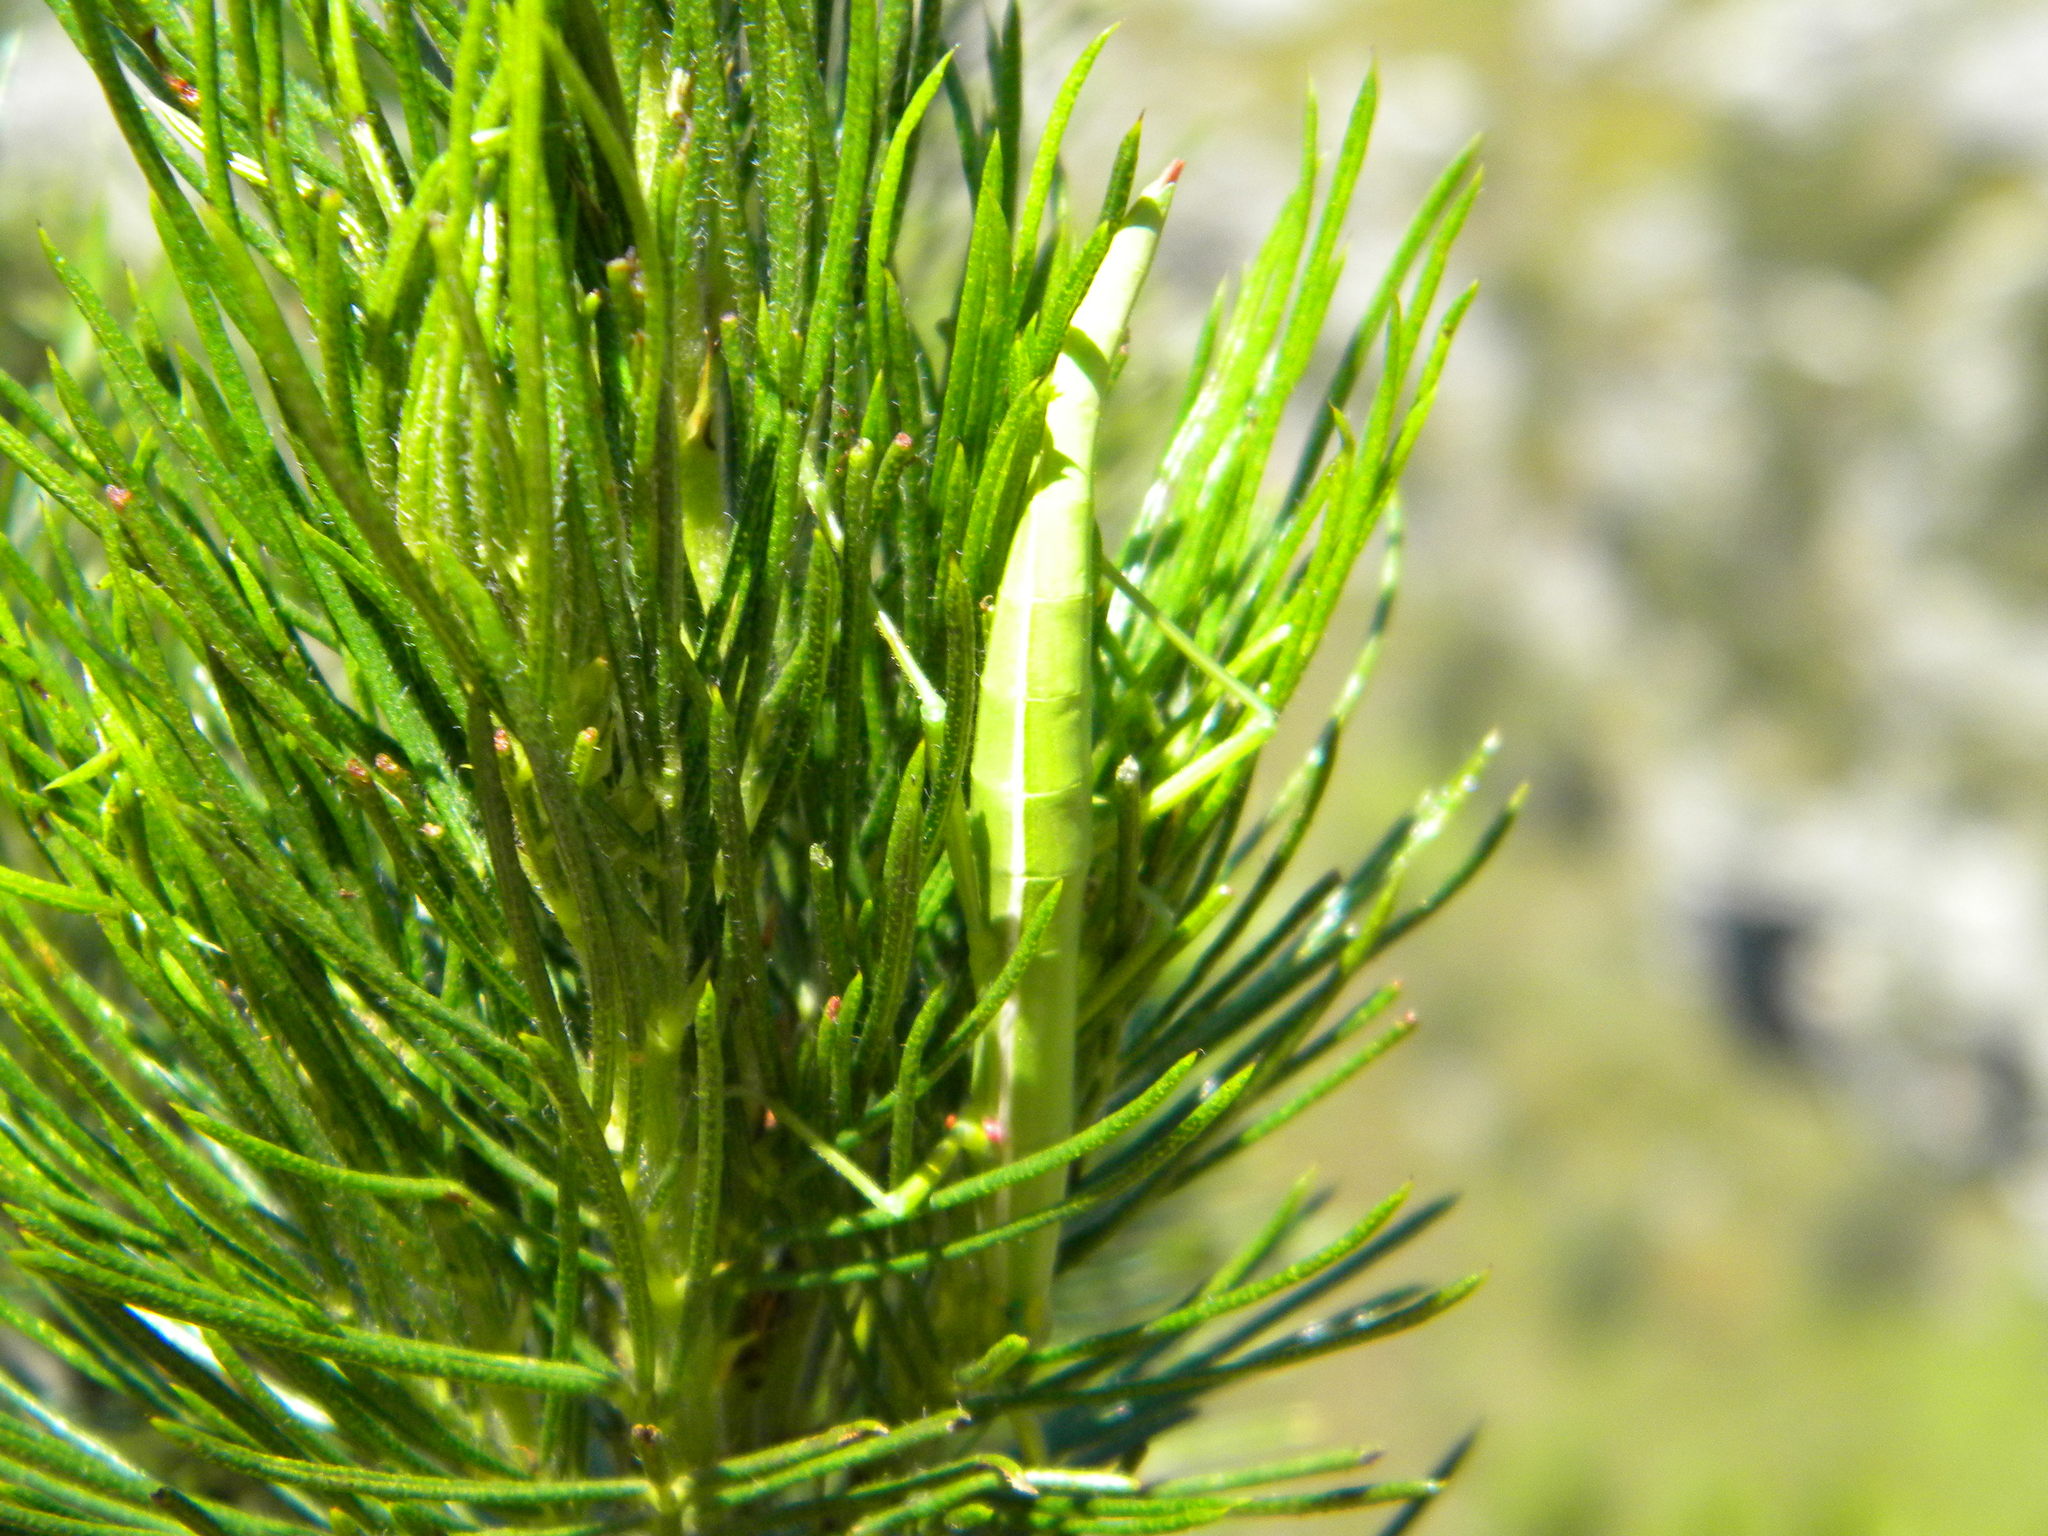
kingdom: Animalia
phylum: Arthropoda
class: Insecta
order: Phasmida
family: Bacillidae
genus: Macynia
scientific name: Macynia labiata
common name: Thunberg's stick insect
